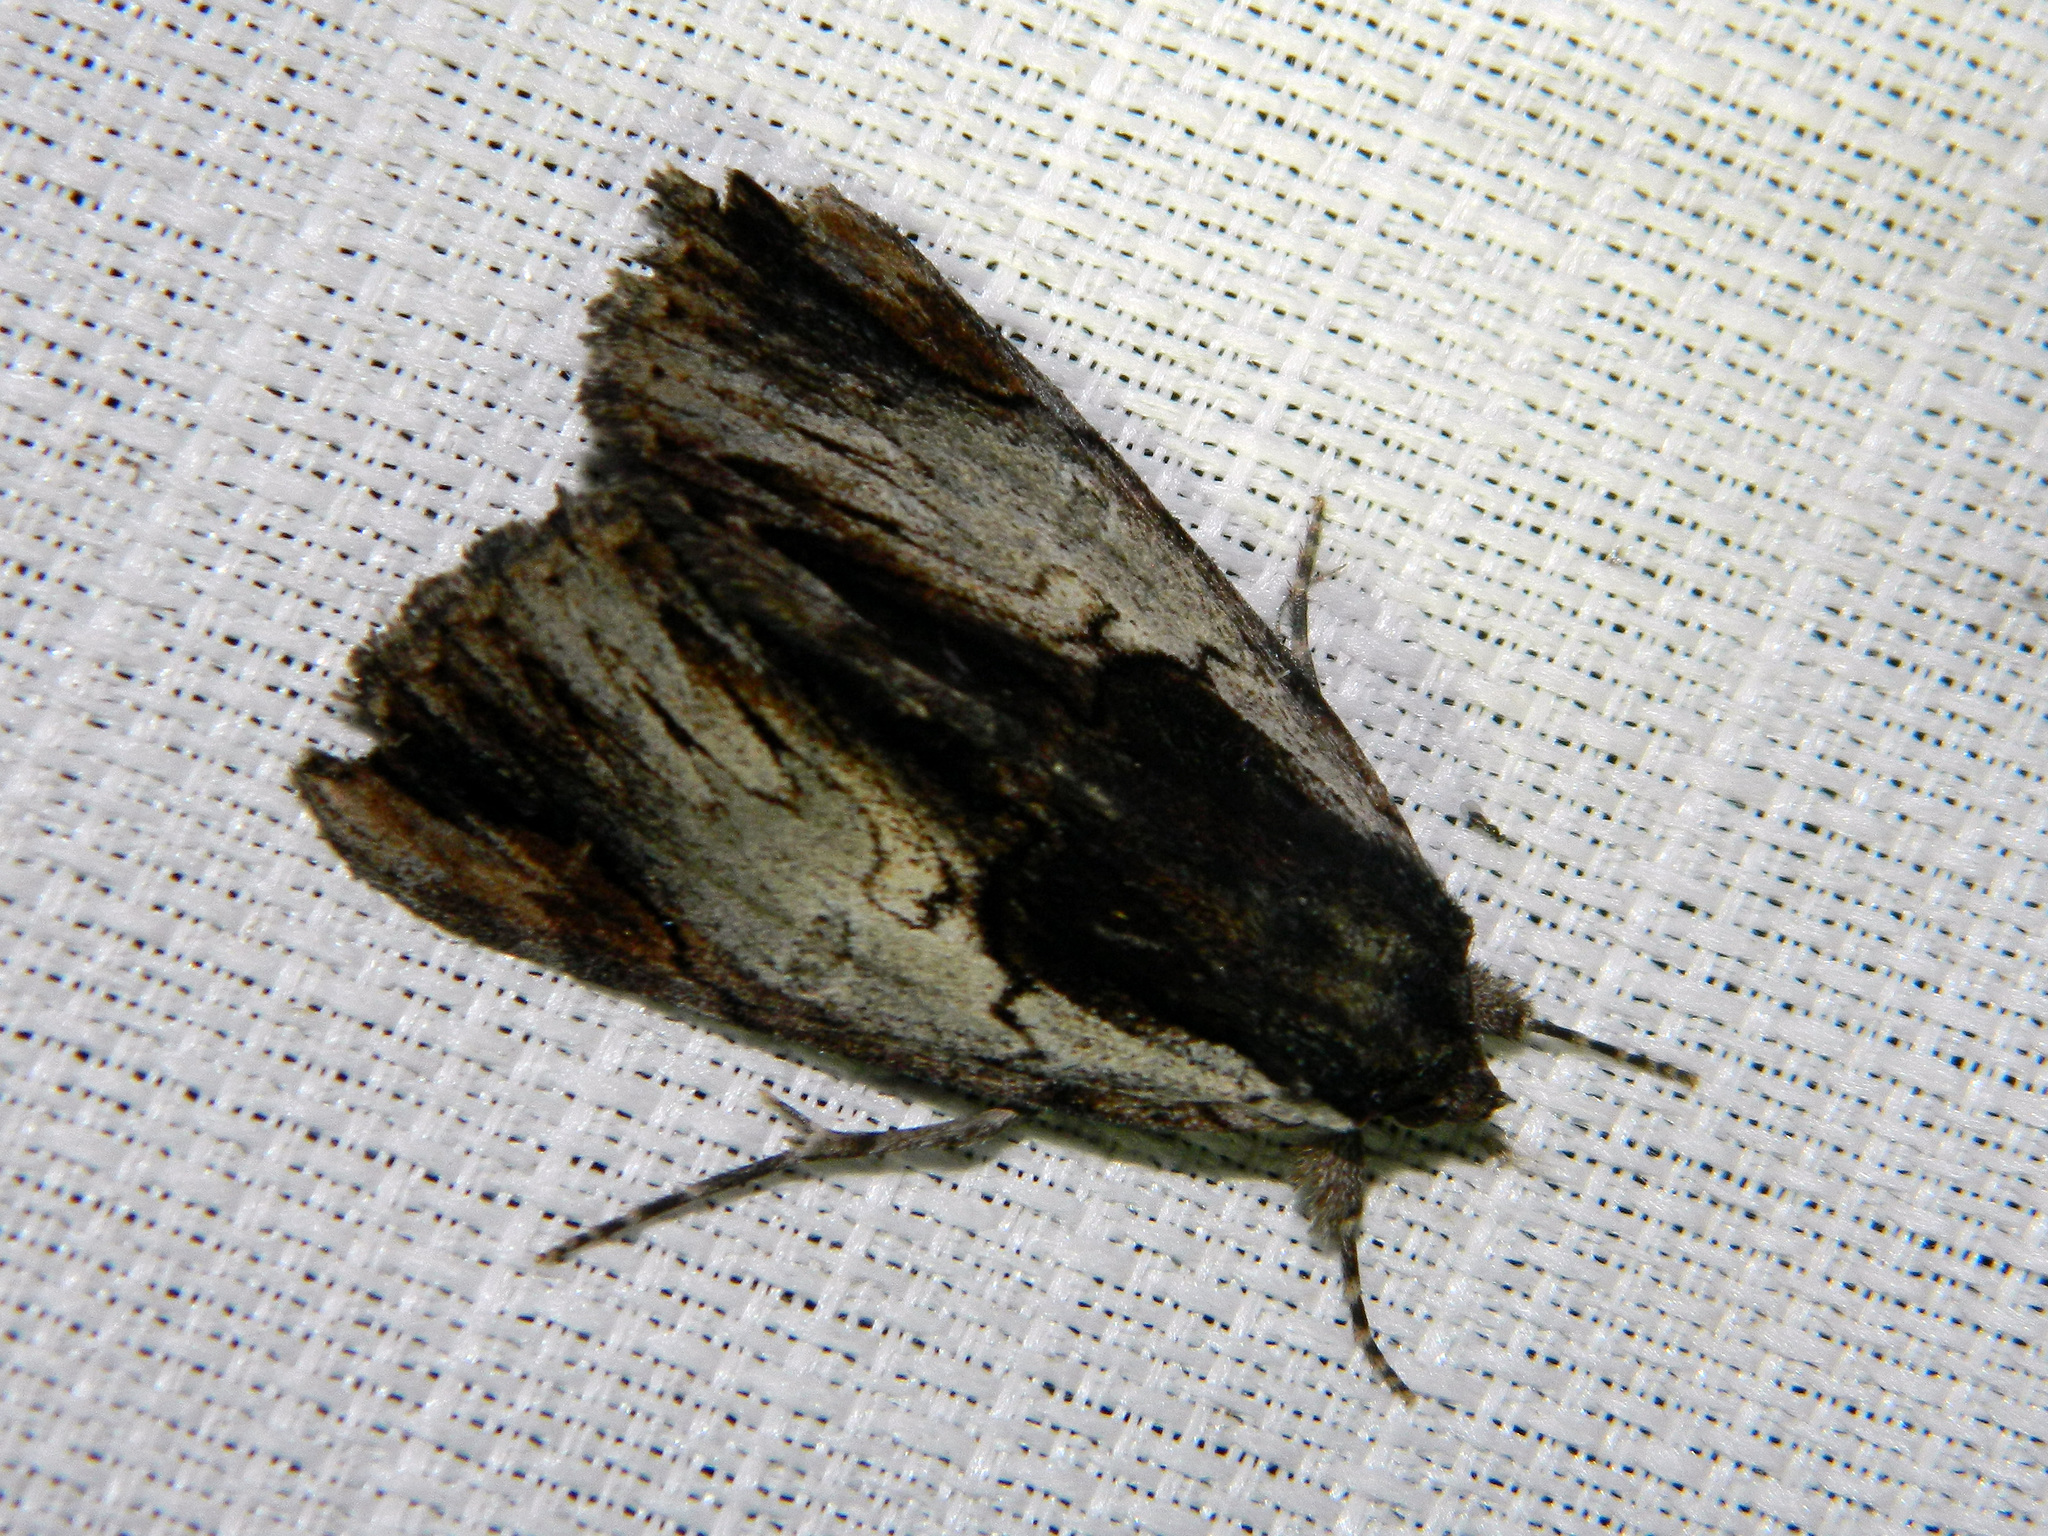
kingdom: Animalia
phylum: Arthropoda
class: Insecta
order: Lepidoptera
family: Erebidae
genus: Catocala
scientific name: Catocala ultronia
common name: Ultronia underwing
